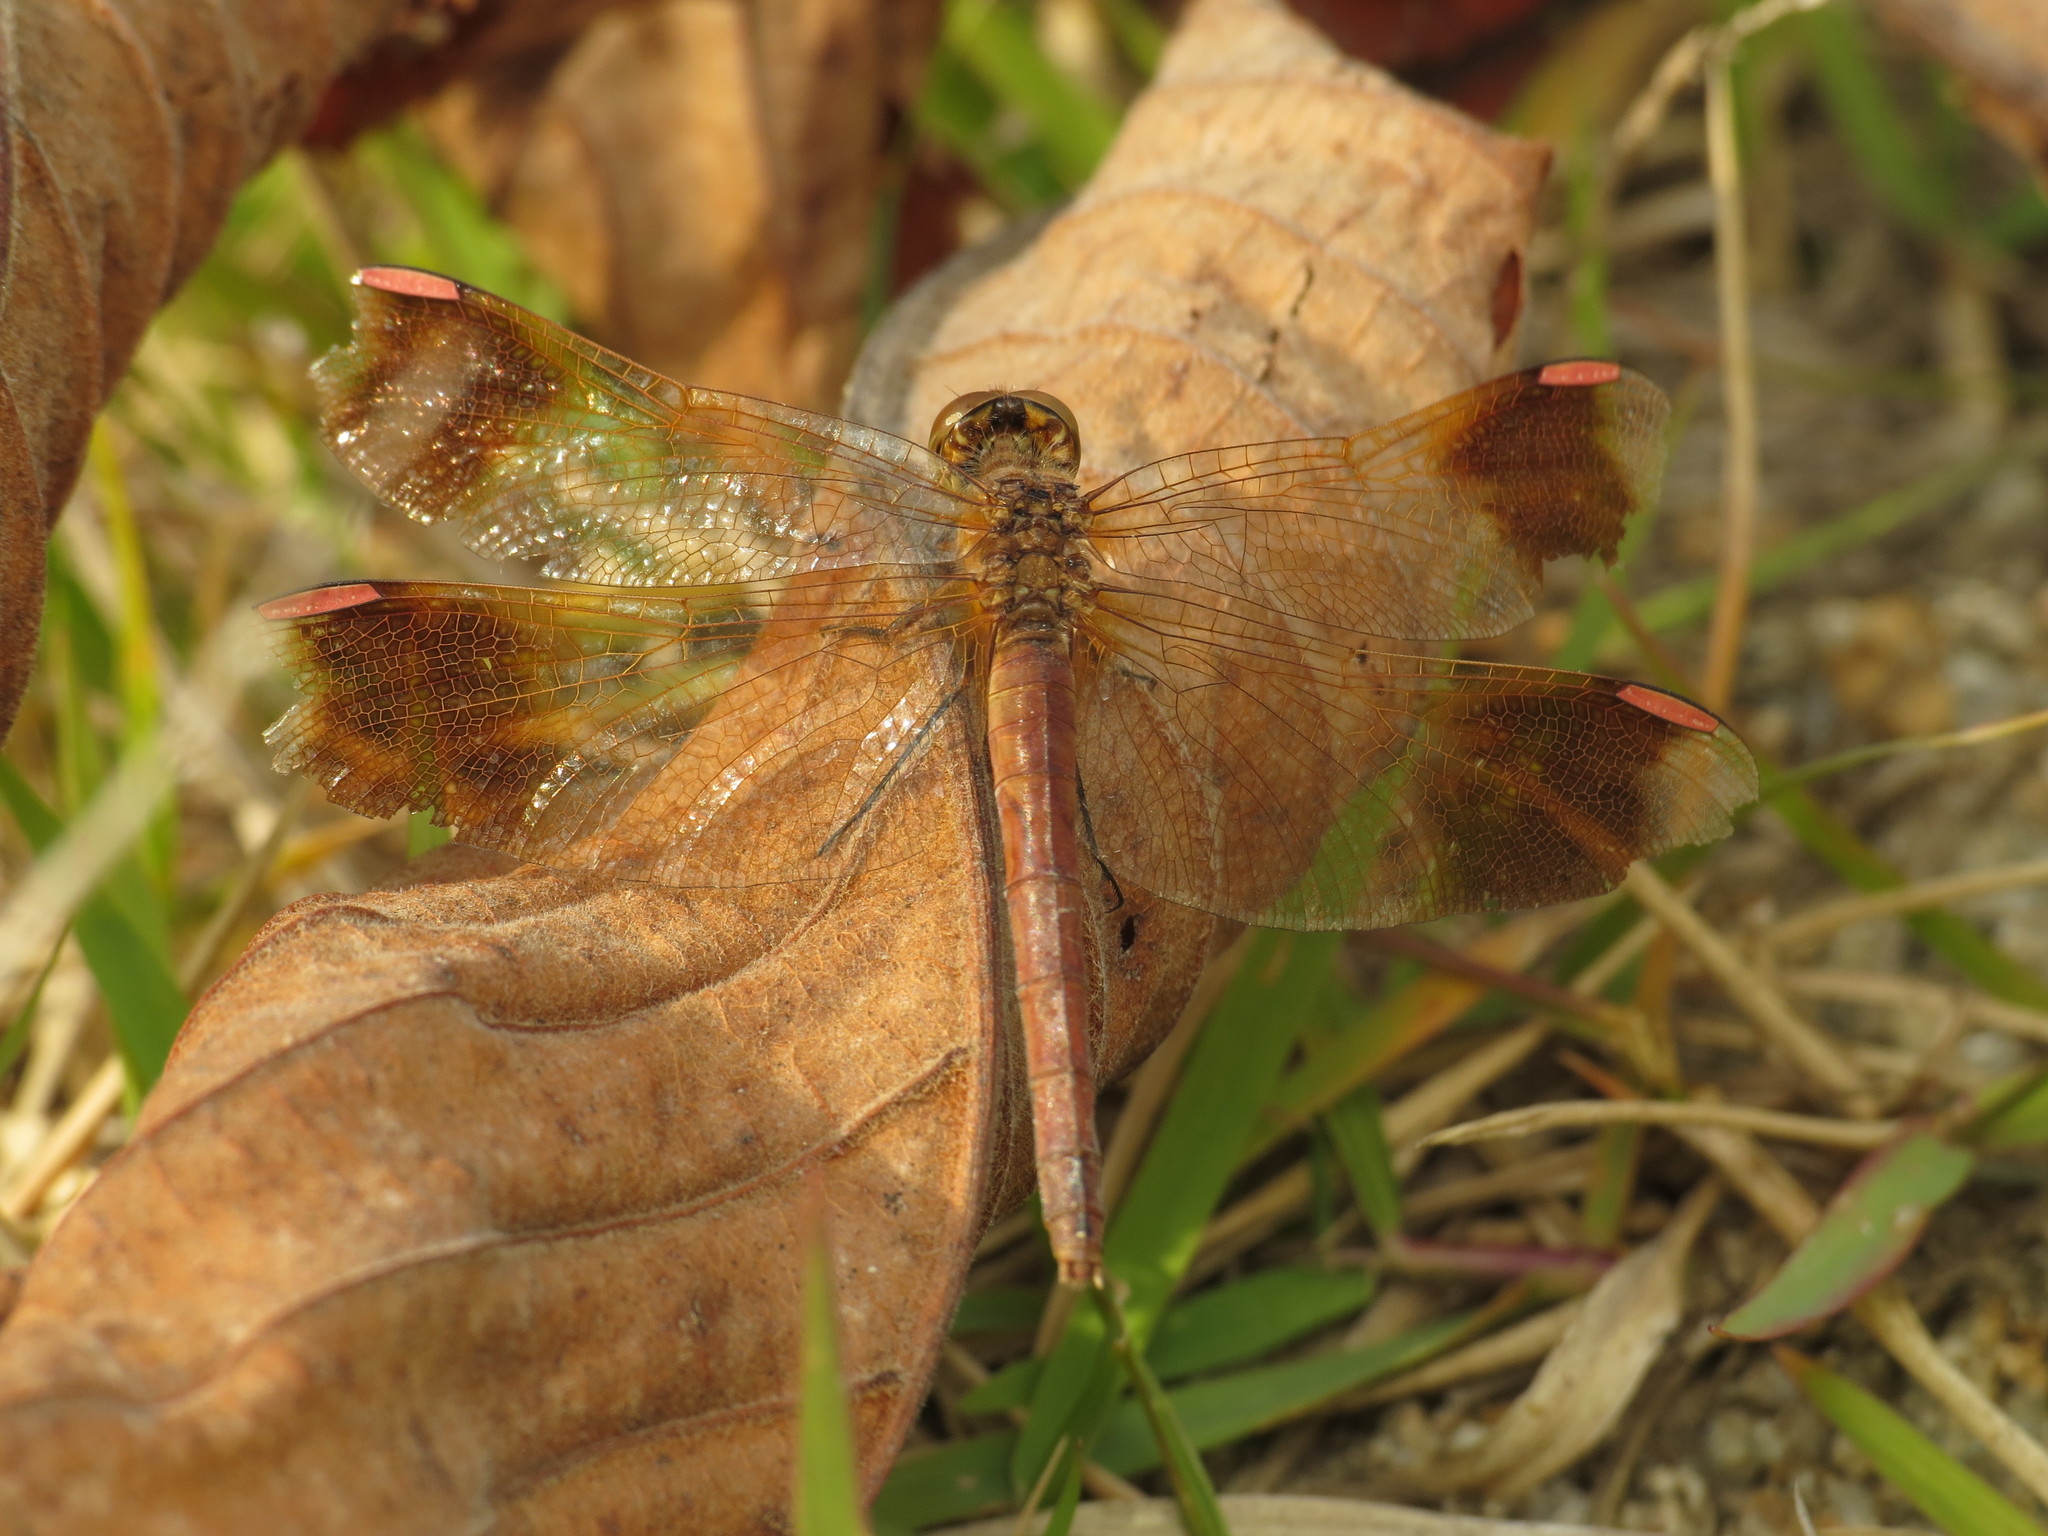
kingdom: Animalia
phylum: Arthropoda
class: Insecta
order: Odonata
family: Libellulidae
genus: Sympetrum
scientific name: Sympetrum pedemontanum
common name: Banded darter
